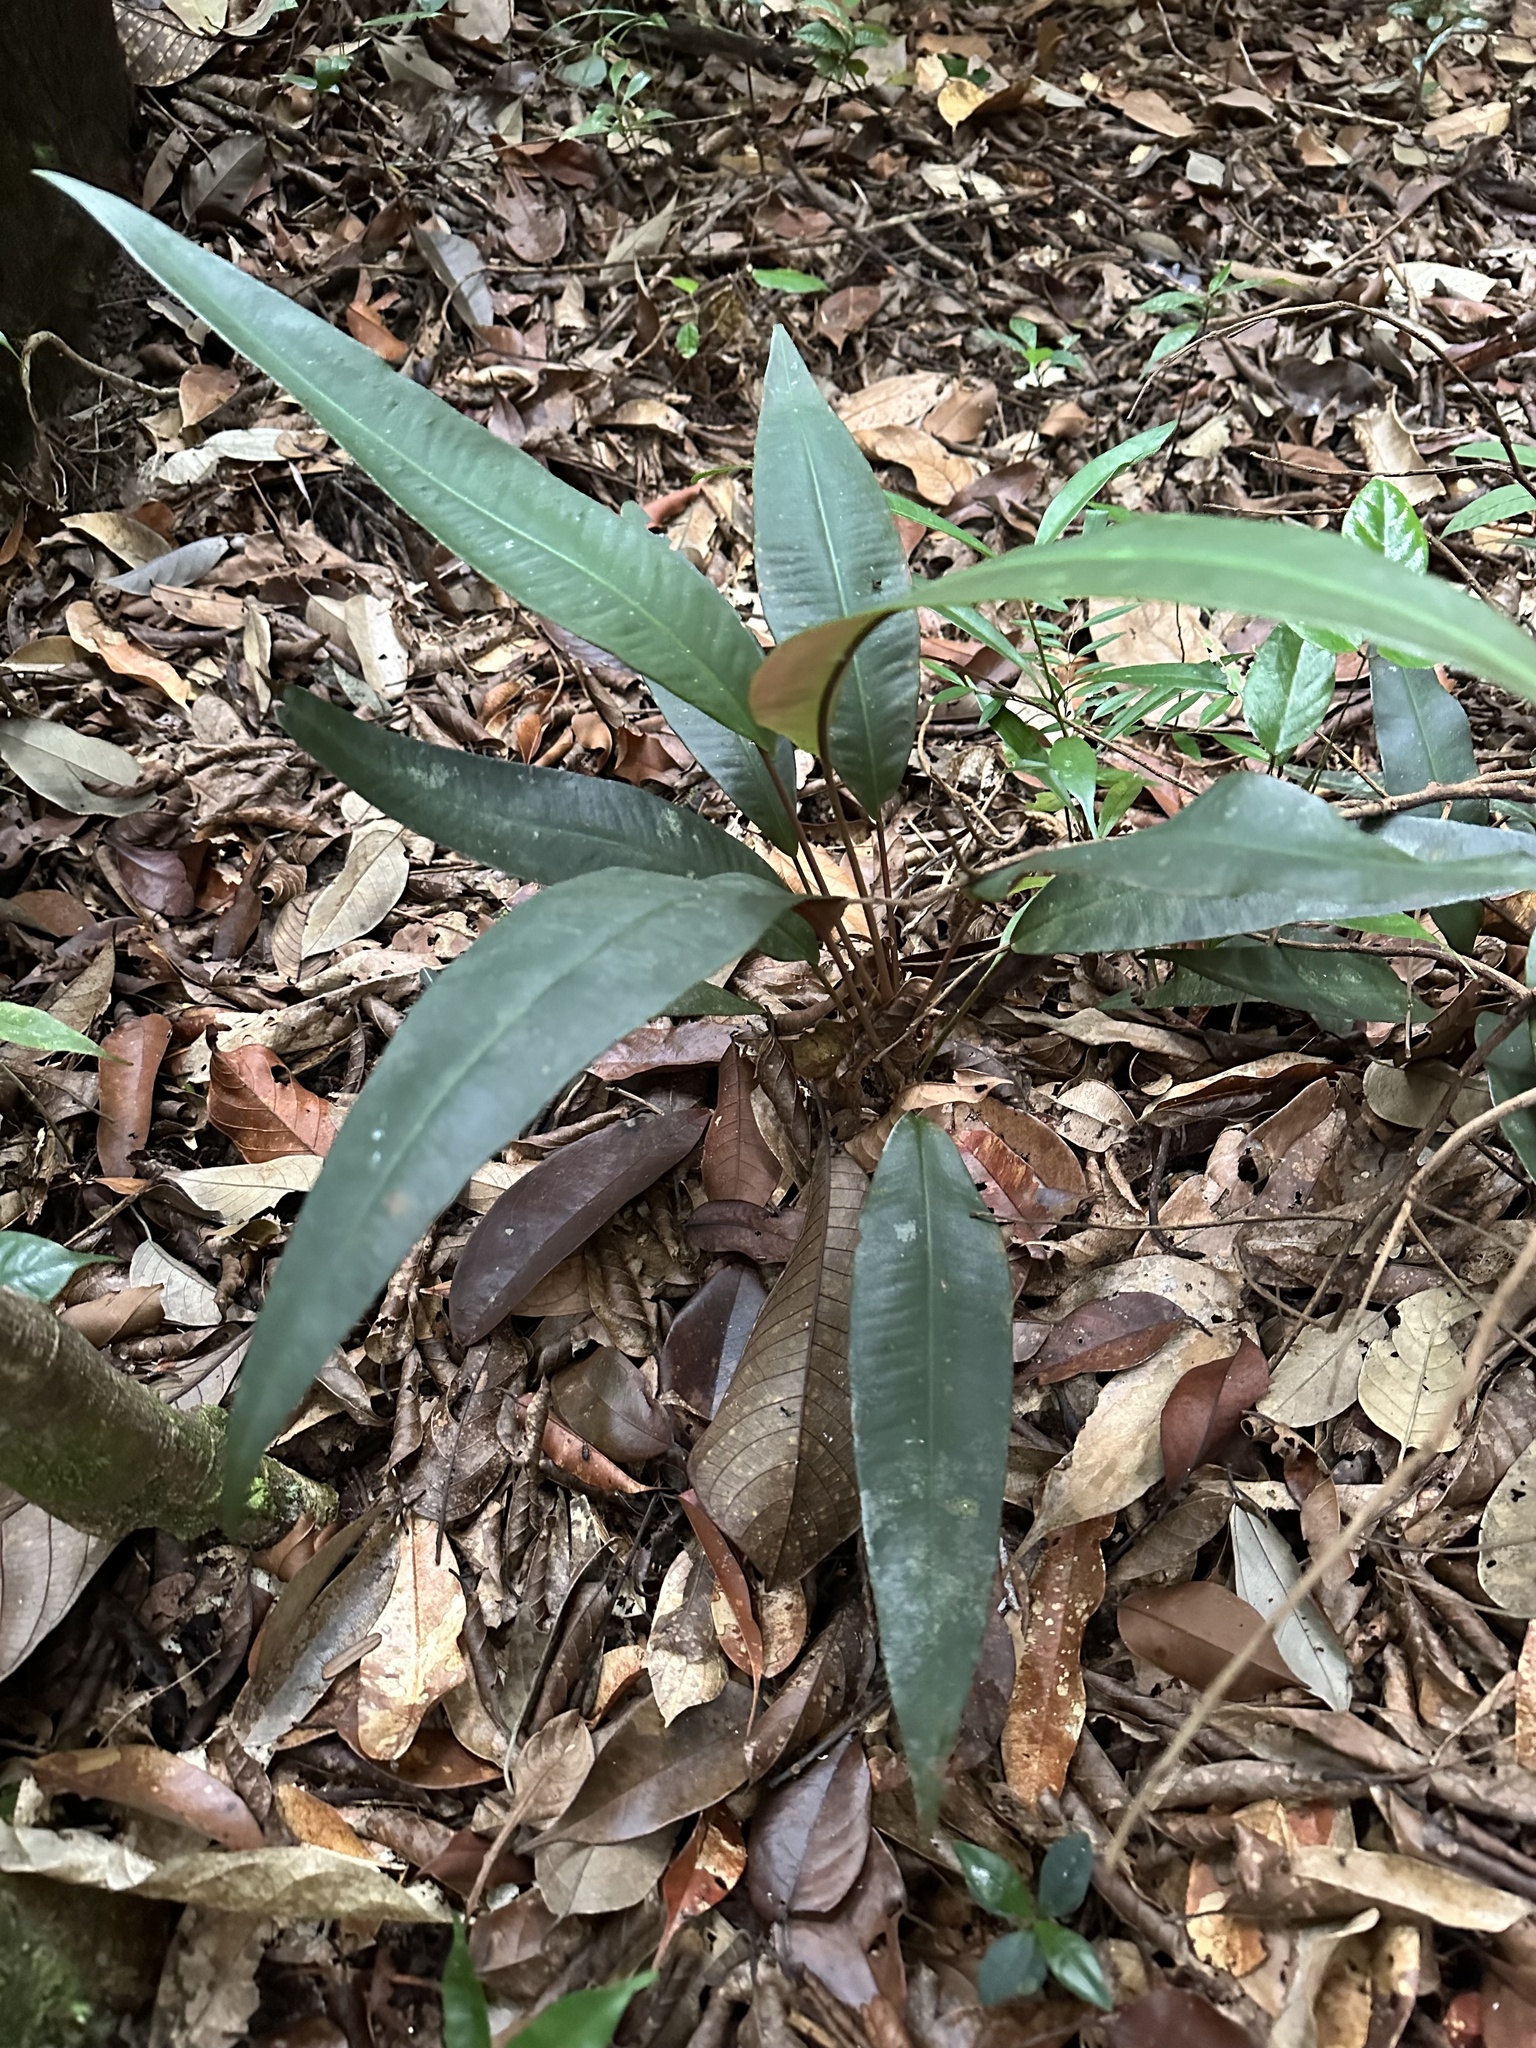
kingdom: Plantae
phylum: Tracheophyta
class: Magnoliopsida
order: Ericales
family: Primulaceae
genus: Labisia
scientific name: Labisia pumila
